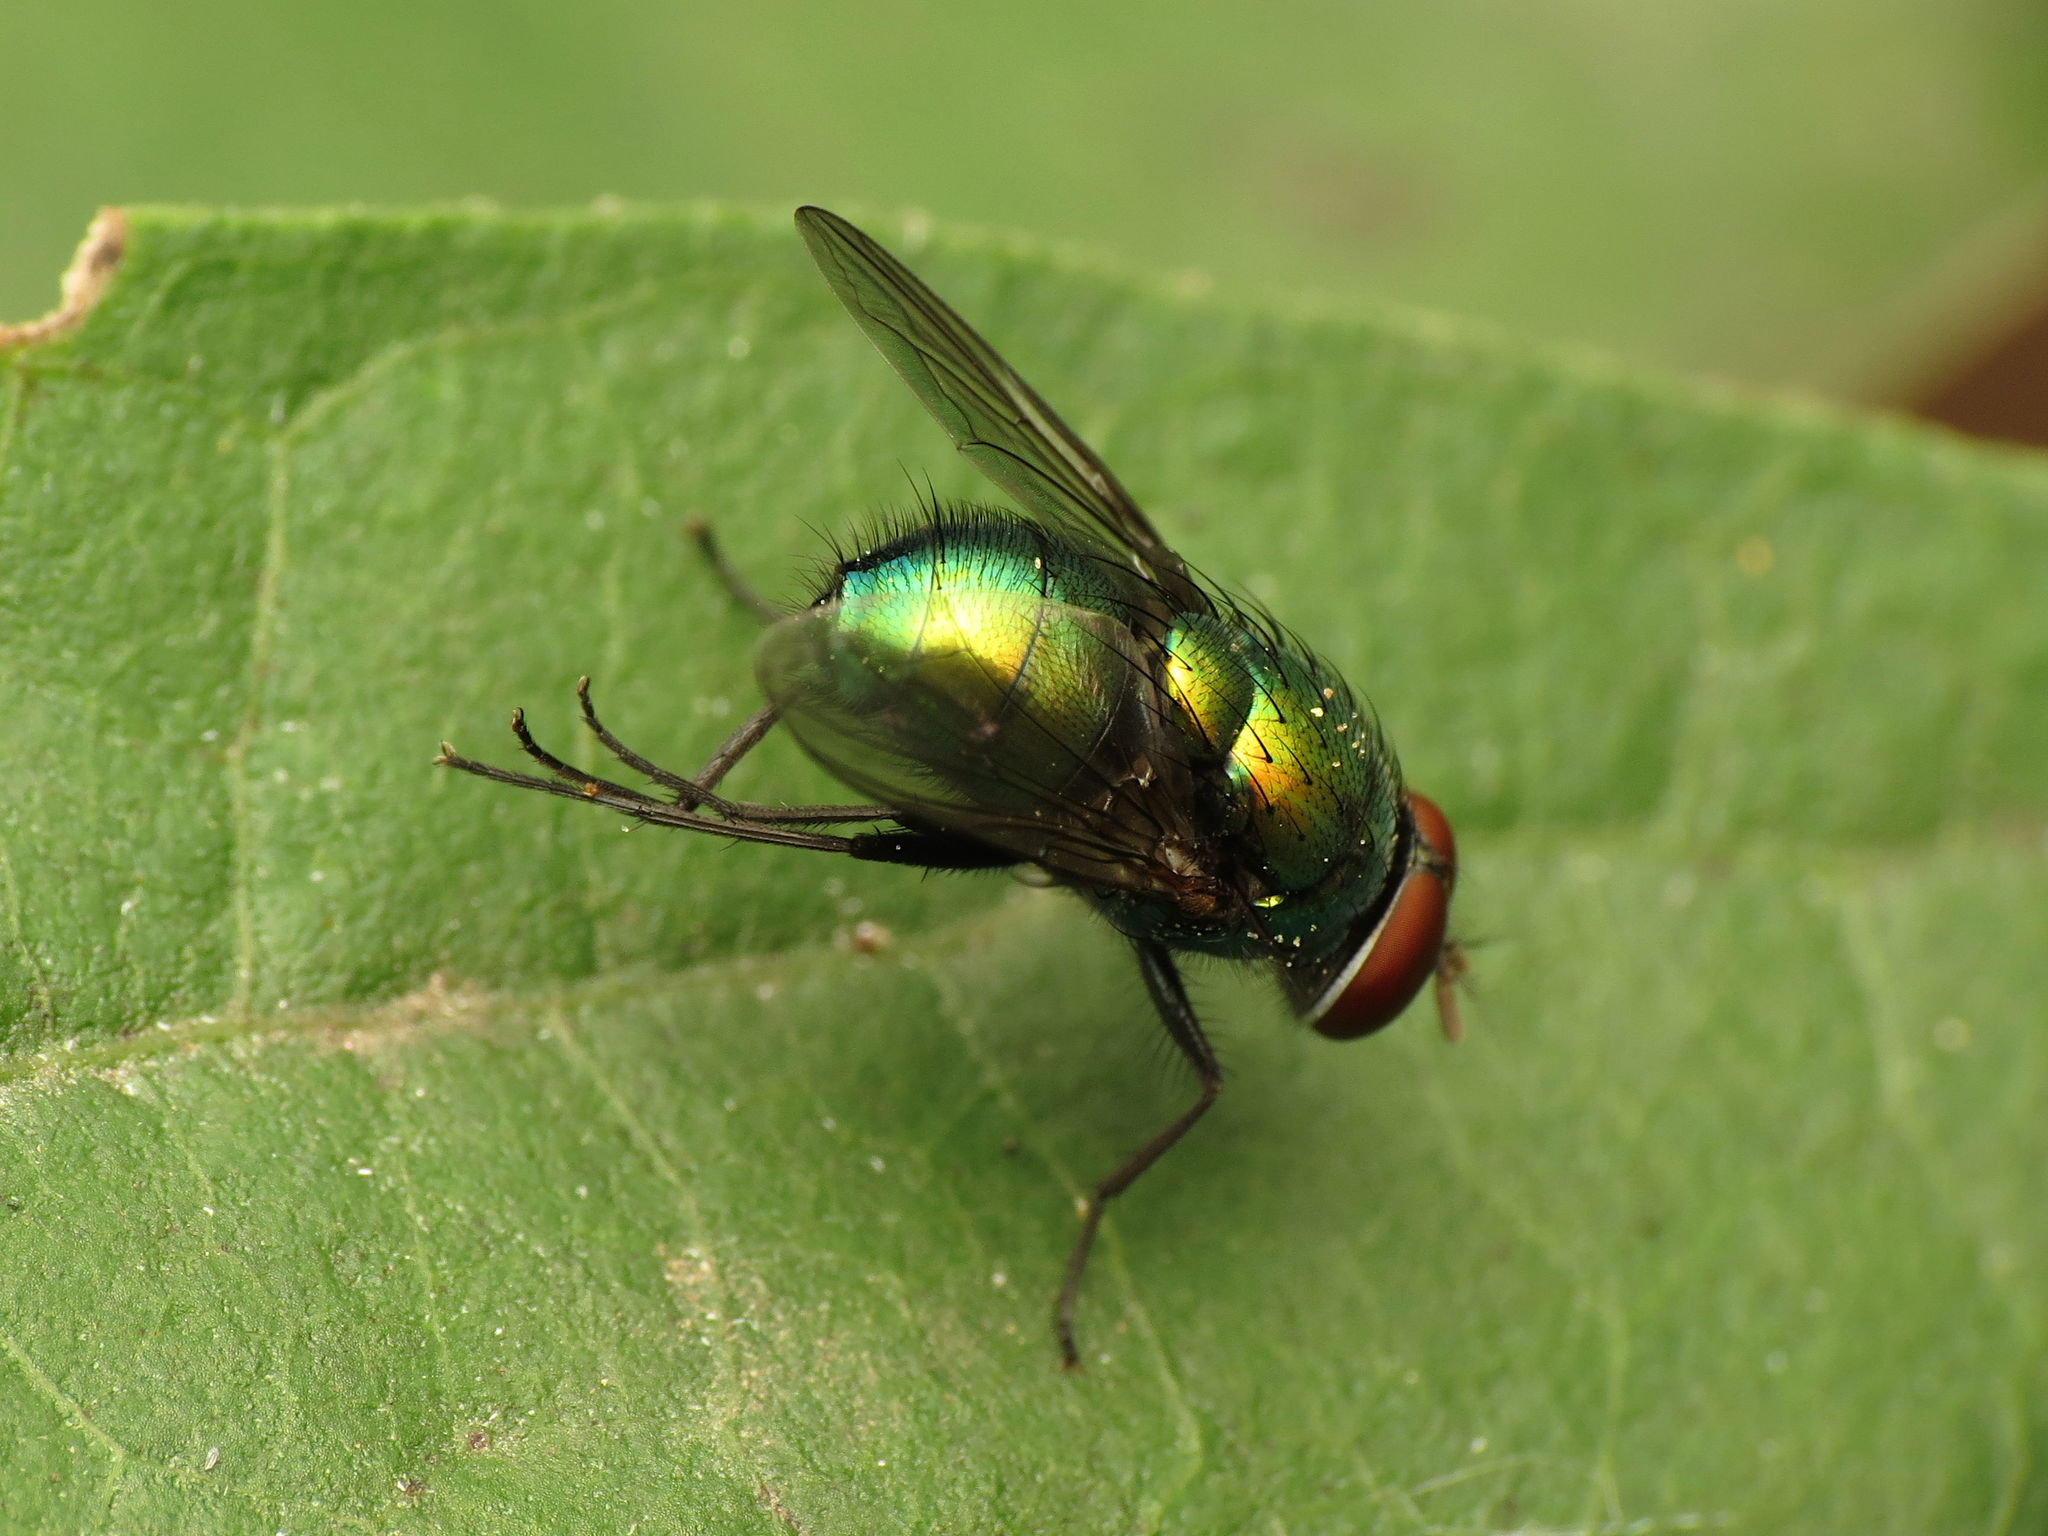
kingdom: Animalia
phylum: Arthropoda
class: Insecta
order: Diptera
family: Calliphoridae
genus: Lucilia
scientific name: Lucilia illustris
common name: Illustrious greenbottle
